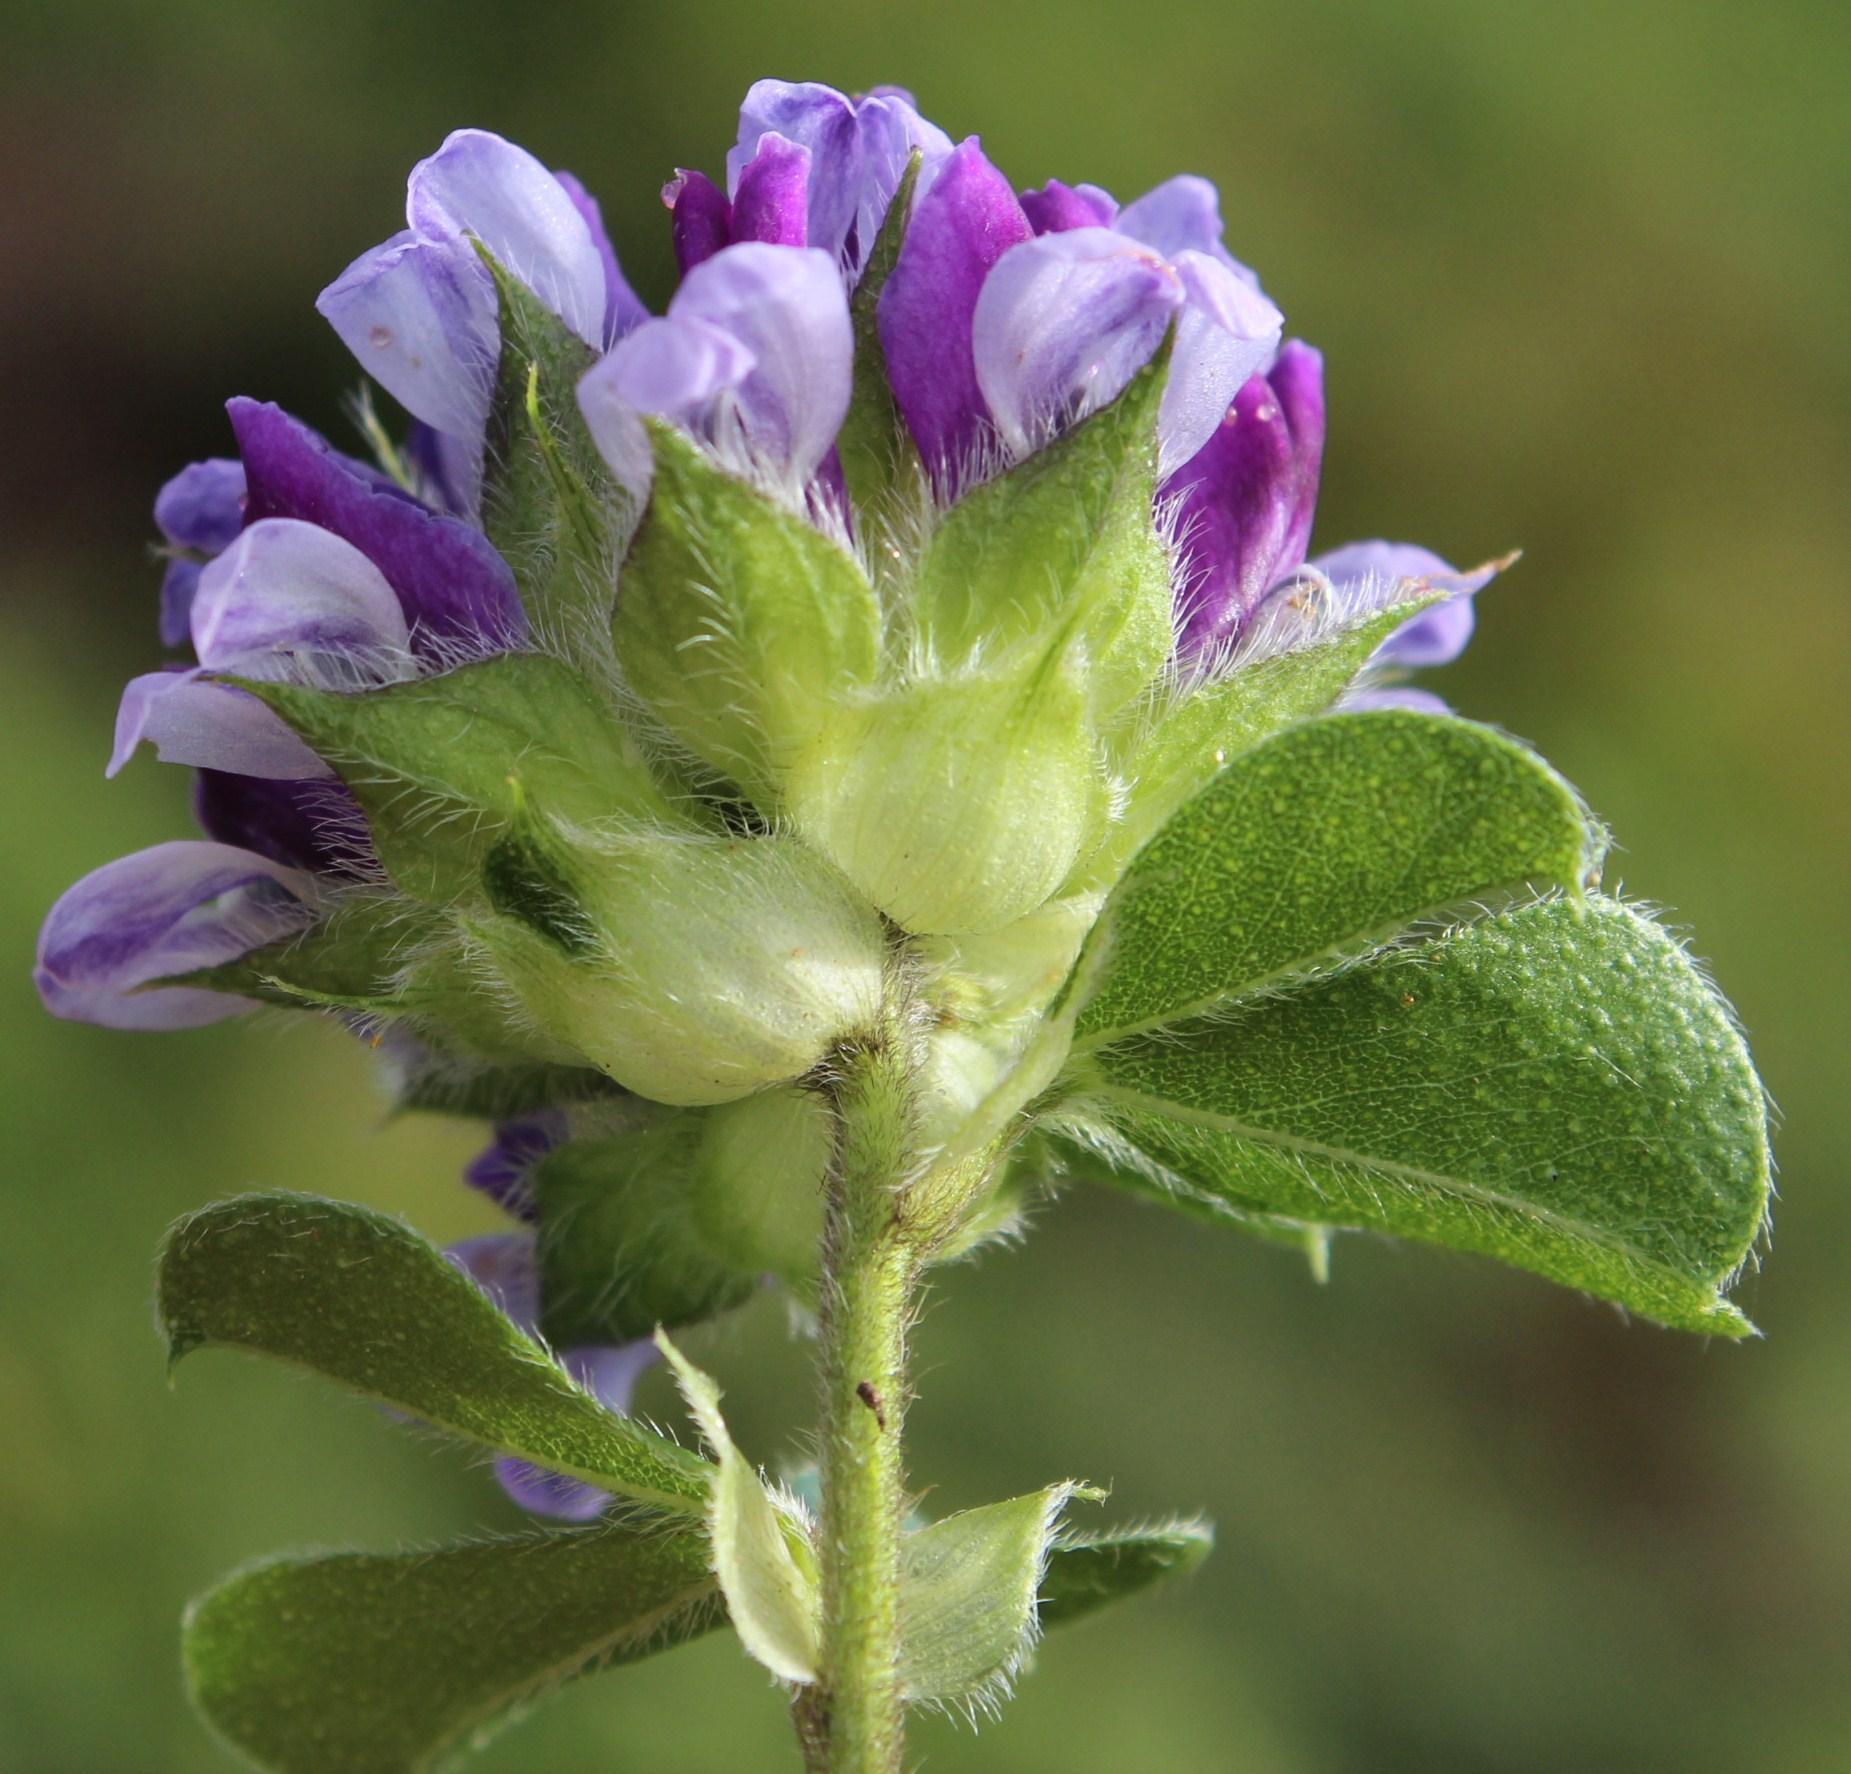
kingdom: Plantae
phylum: Tracheophyta
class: Magnoliopsida
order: Fabales
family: Fabaceae
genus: Psoralea
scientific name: Psoralea fruticans
